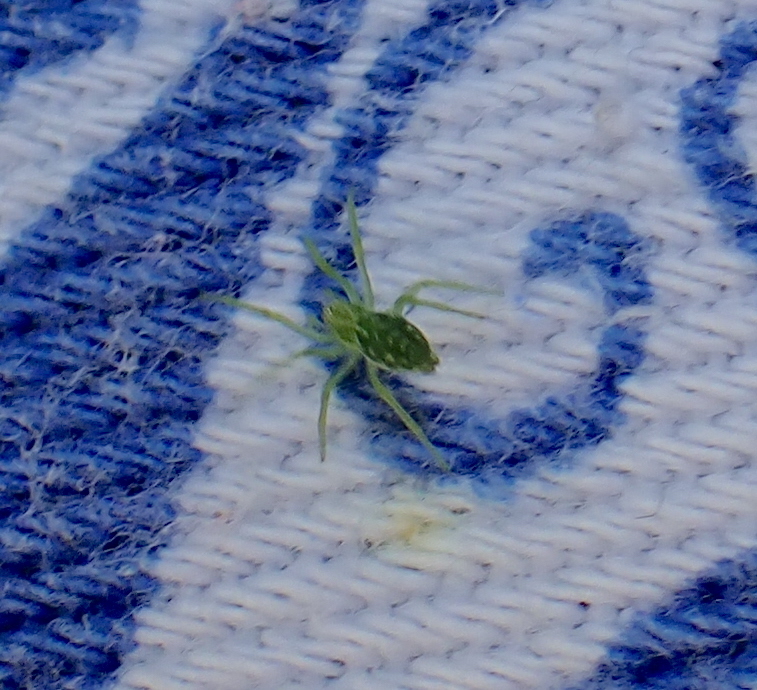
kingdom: Animalia
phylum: Arthropoda
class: Arachnida
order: Araneae
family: Dictynidae
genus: Nigma
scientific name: Nigma walckenaeri
